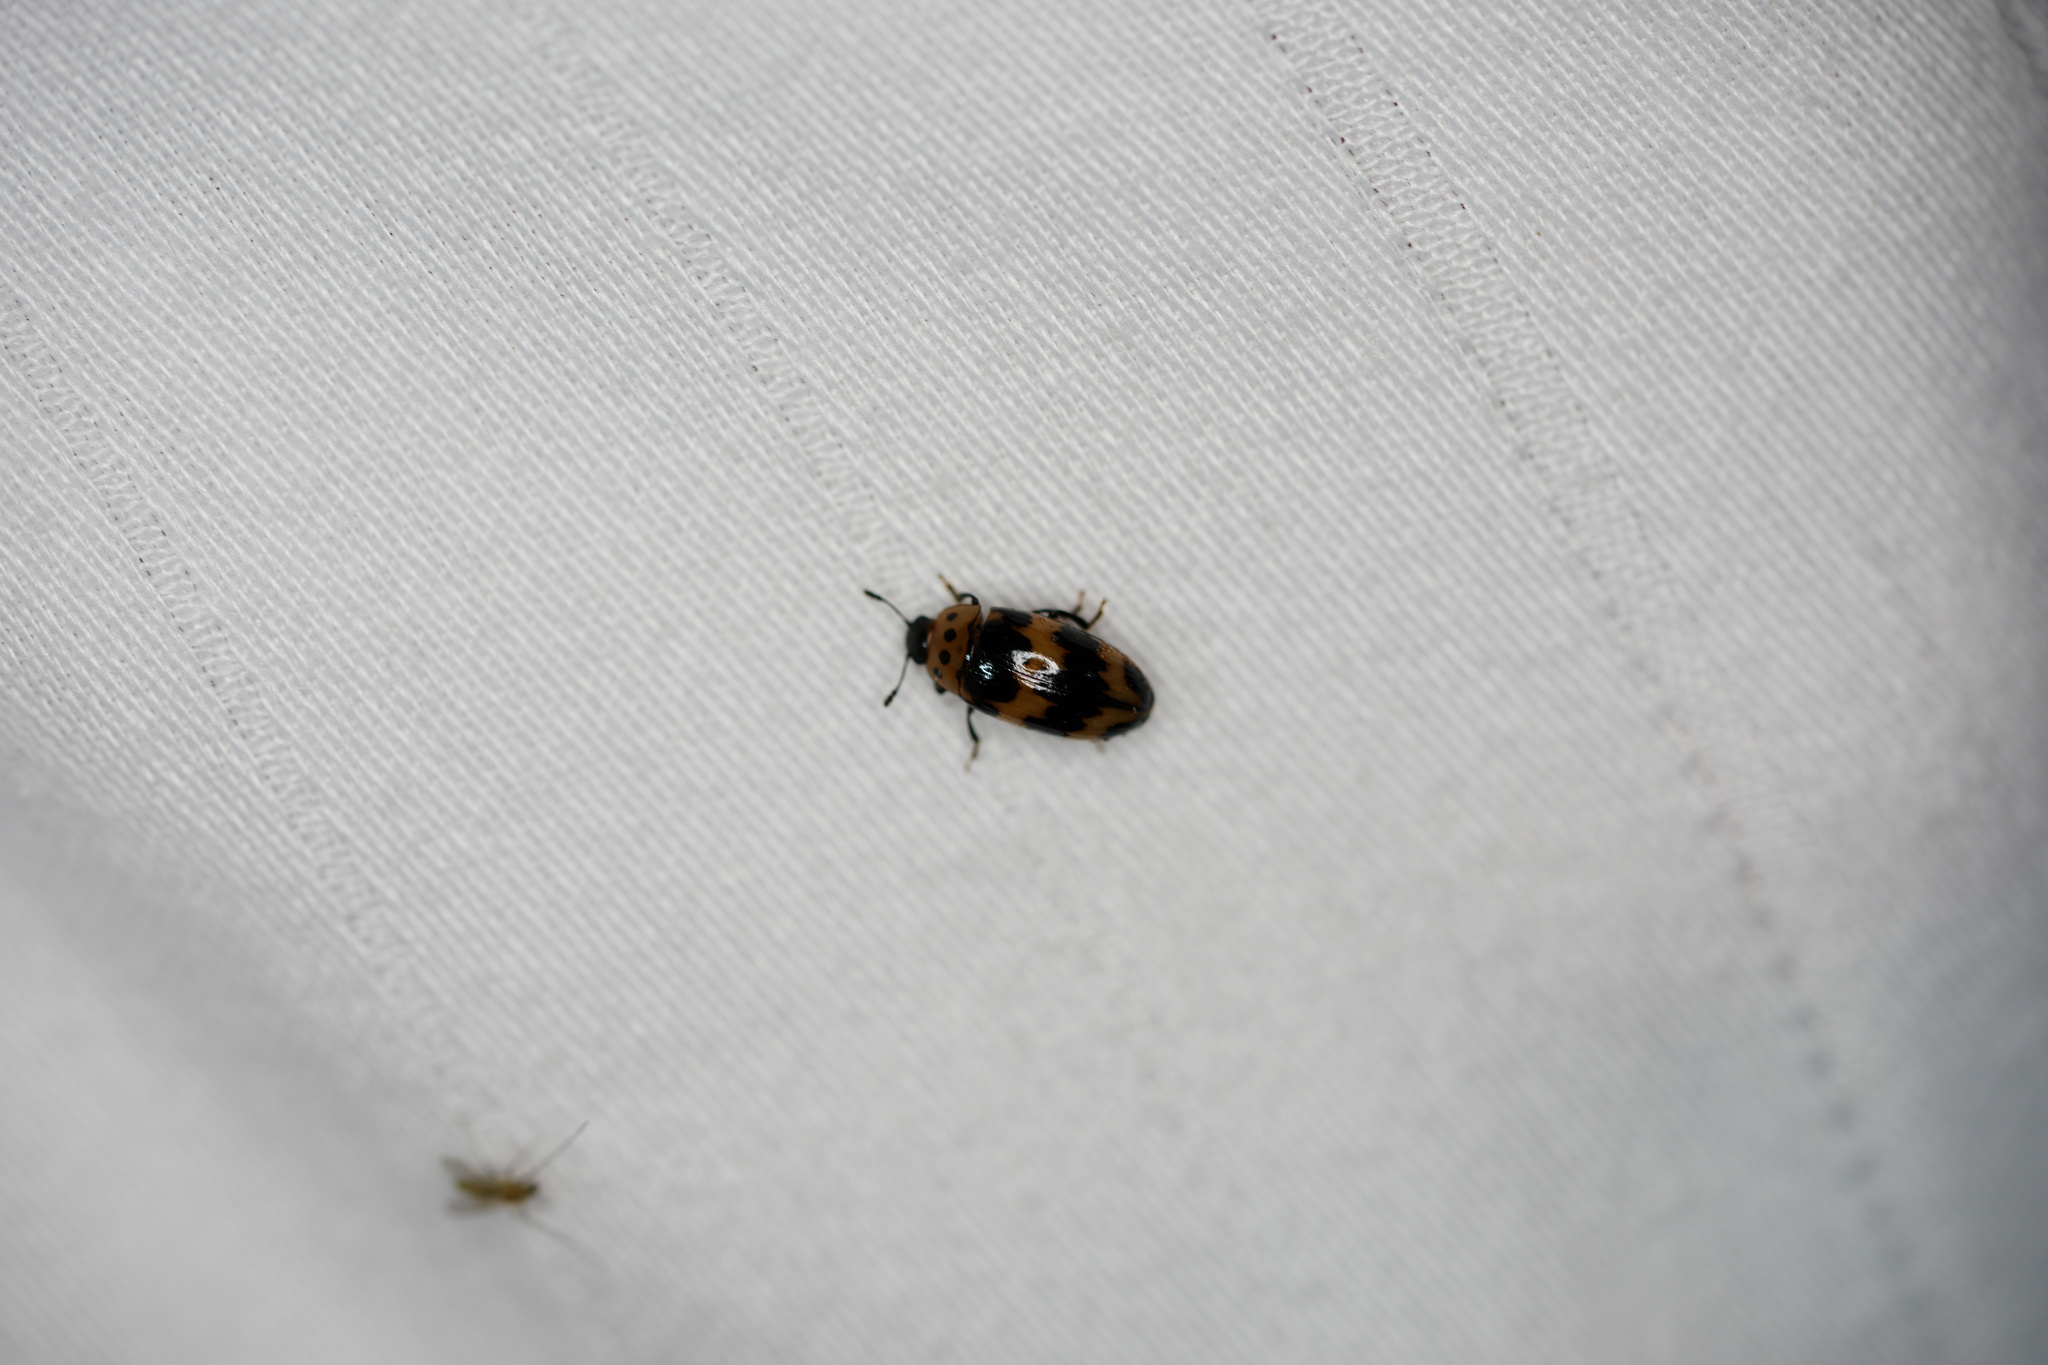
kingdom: Animalia
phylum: Arthropoda
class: Insecta
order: Coleoptera
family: Erotylidae
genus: Ischyrus
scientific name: Ischyrus quadripunctatus
